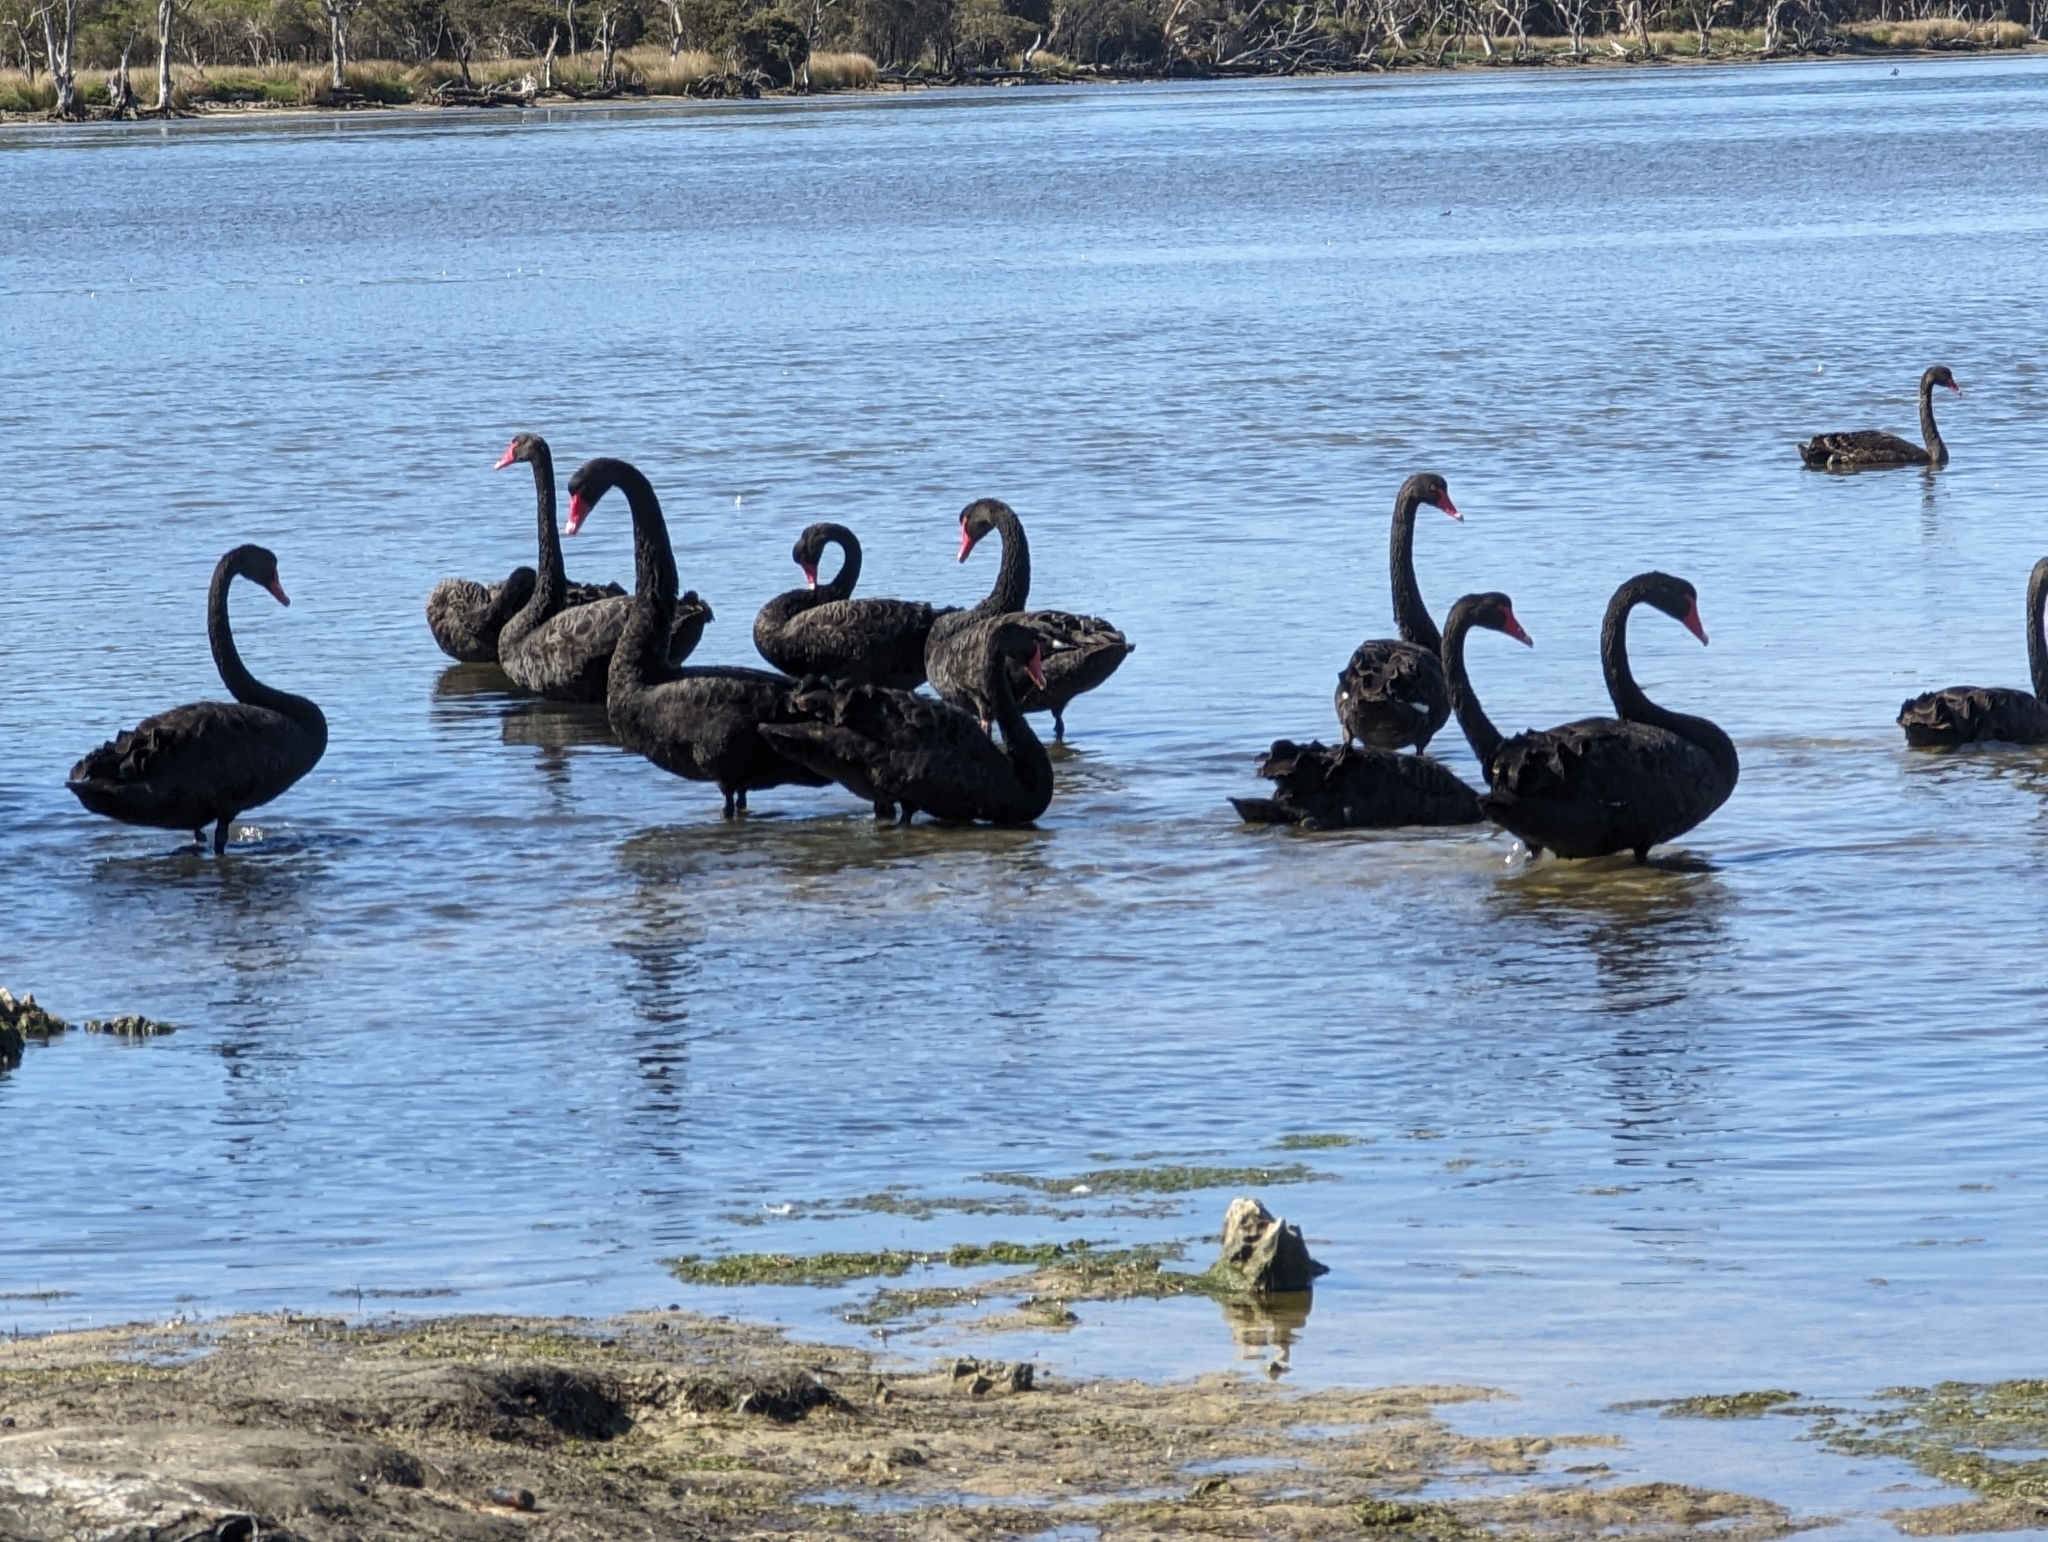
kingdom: Animalia
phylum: Chordata
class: Aves
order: Anseriformes
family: Anatidae
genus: Cygnus
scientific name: Cygnus atratus
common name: Black swan
